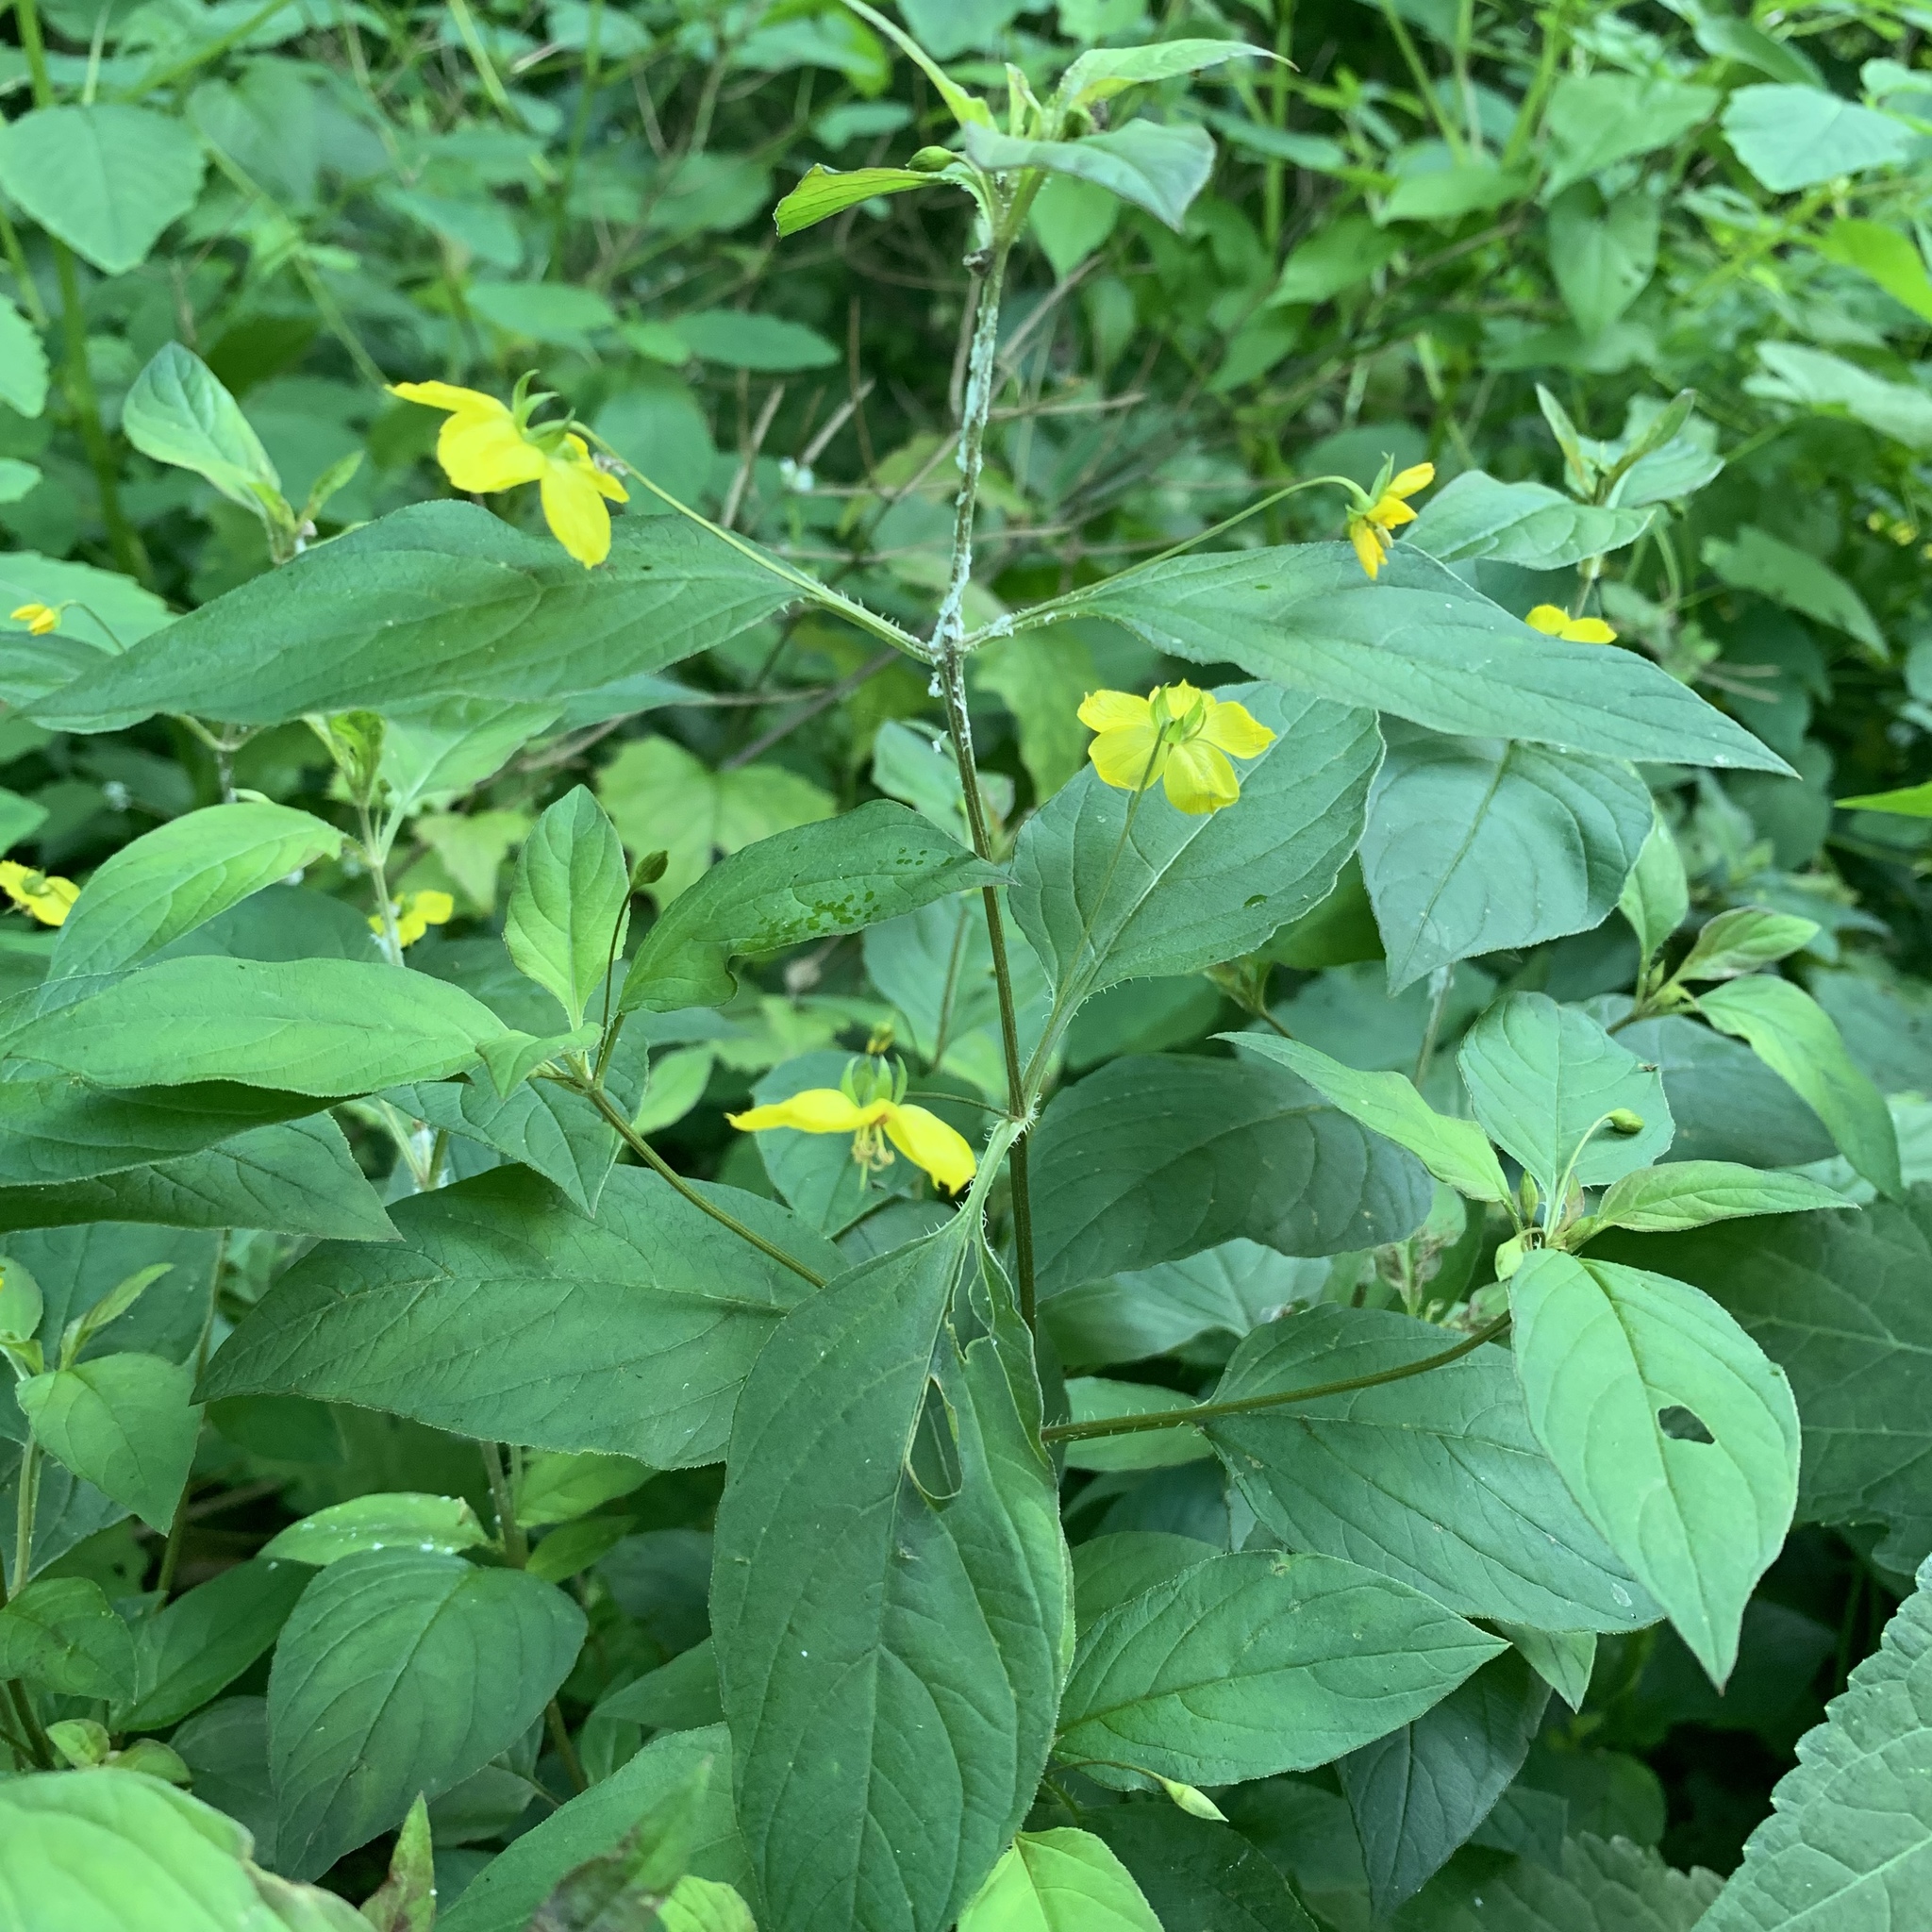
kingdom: Plantae
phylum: Tracheophyta
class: Magnoliopsida
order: Ericales
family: Primulaceae
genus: Lysimachia
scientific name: Lysimachia ciliata
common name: Fringed loosestrife
